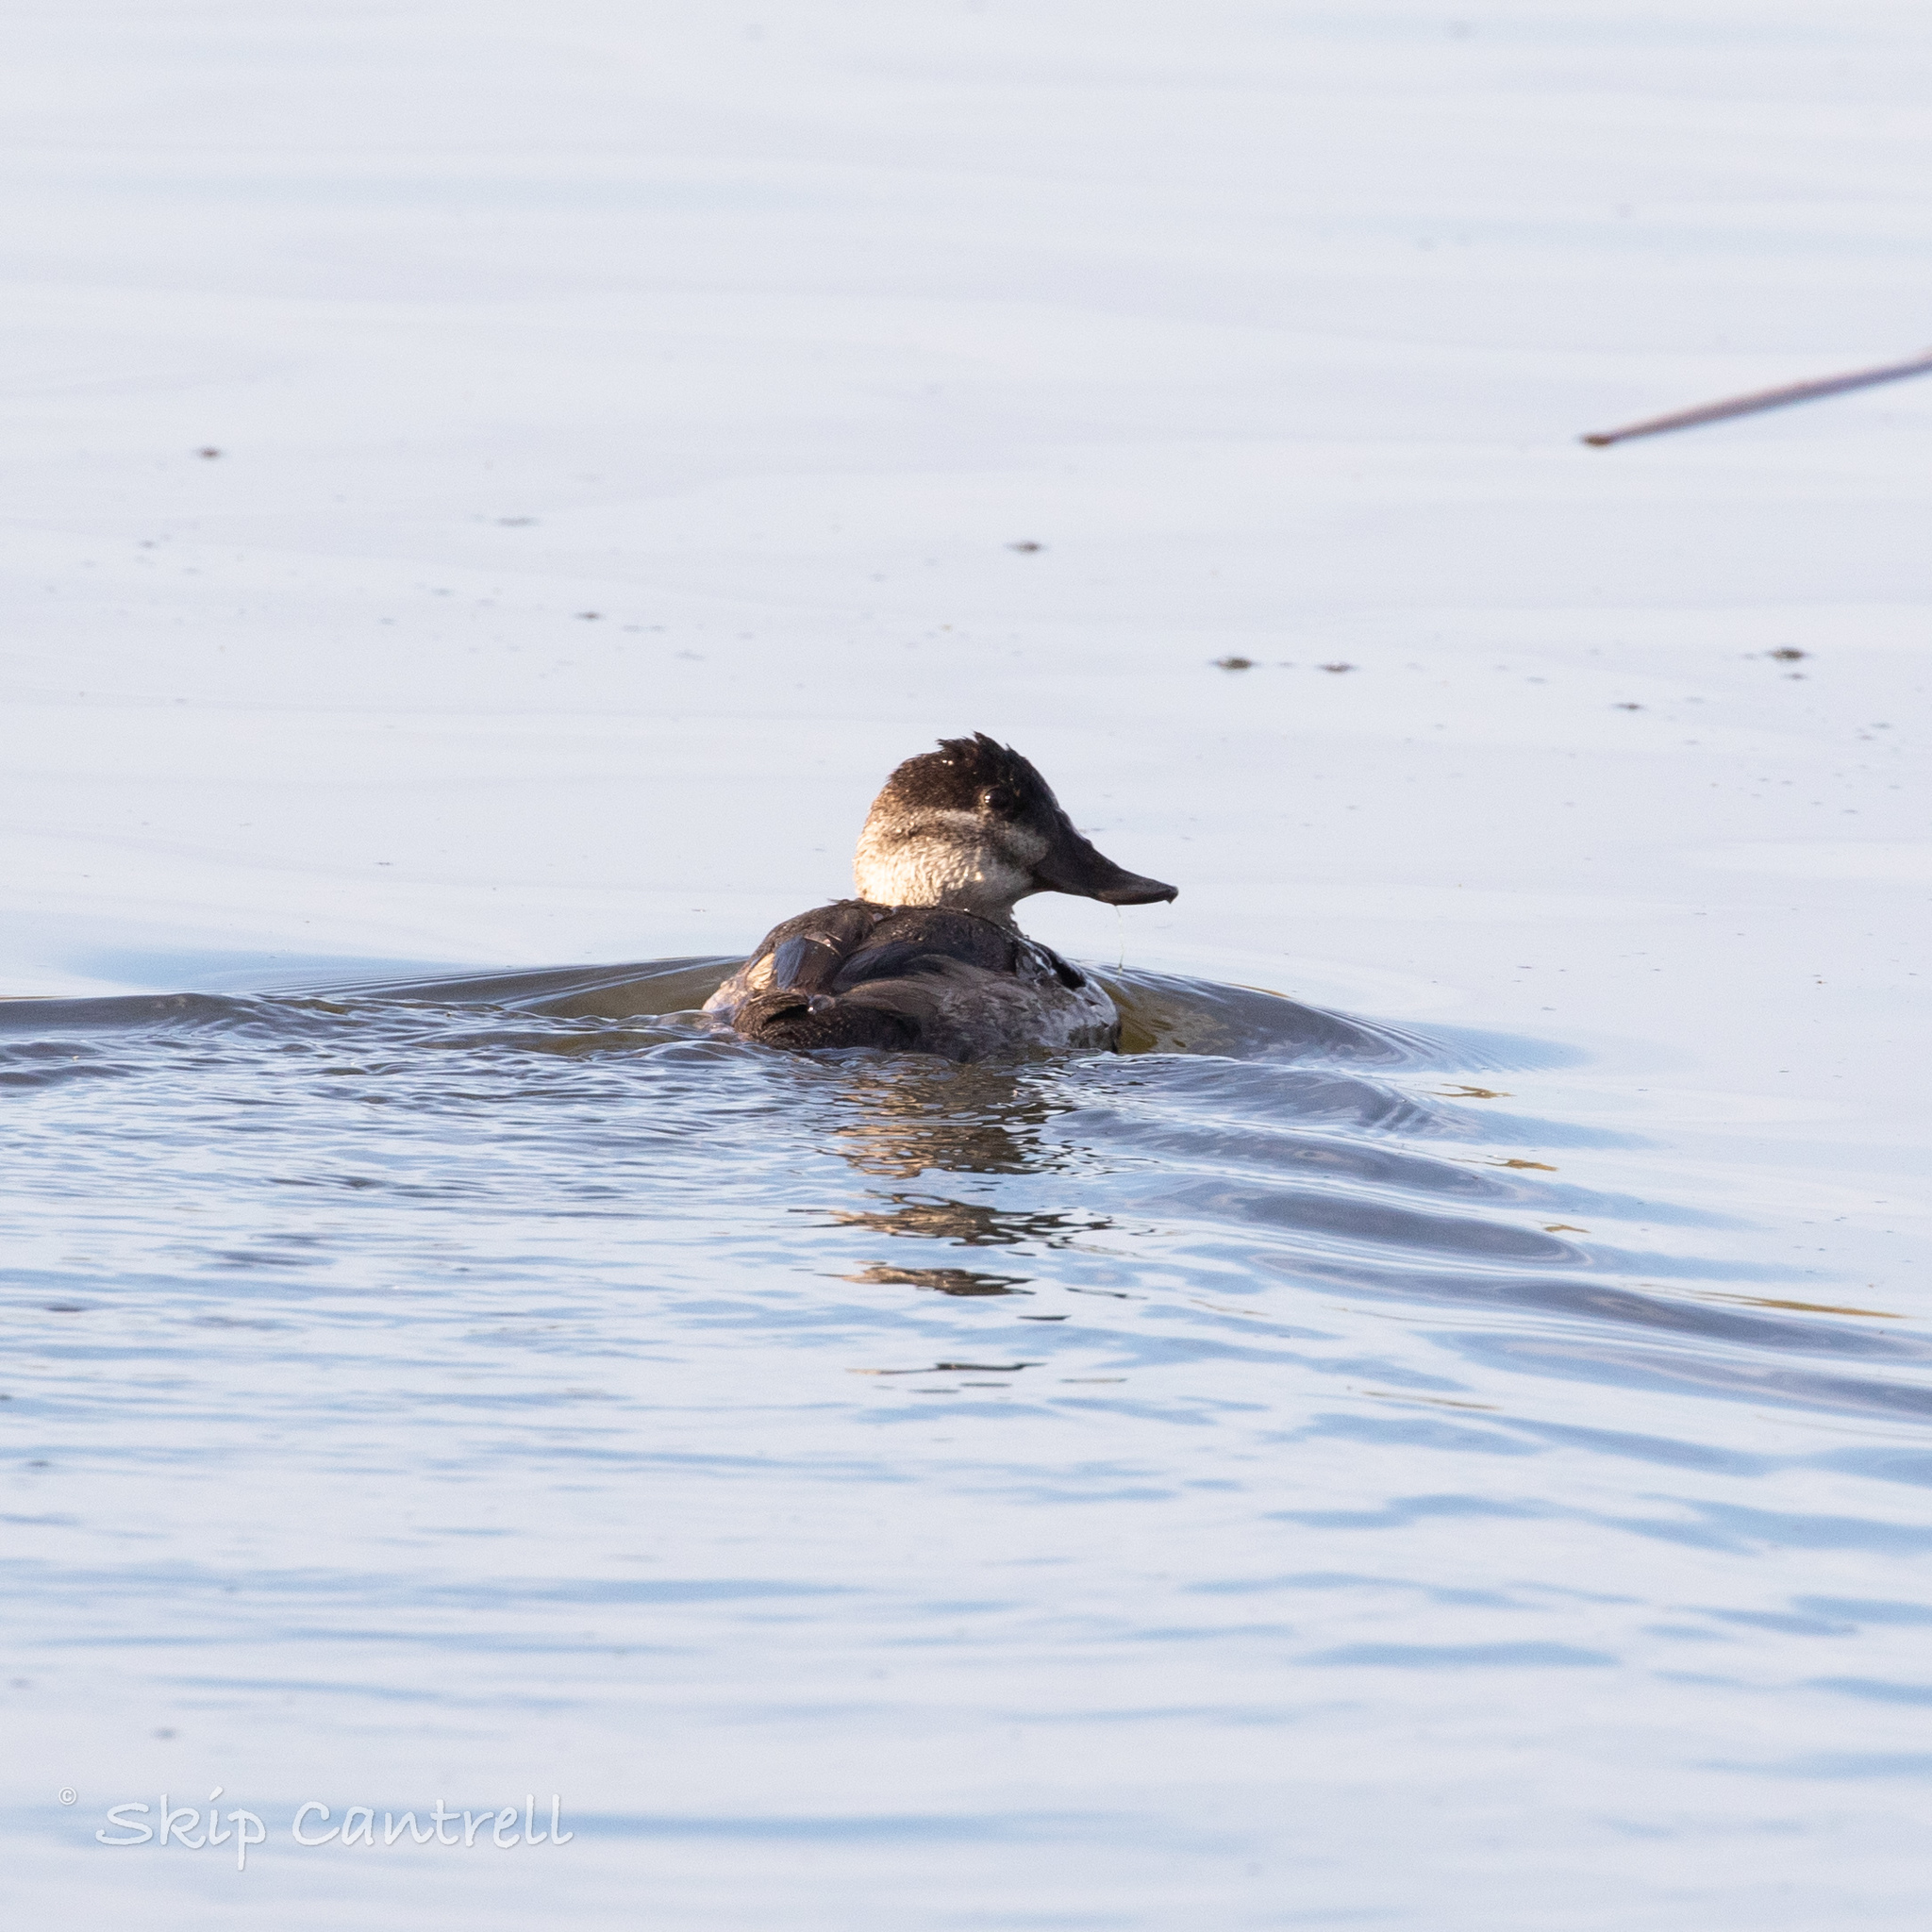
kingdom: Animalia
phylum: Chordata
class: Aves
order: Anseriformes
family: Anatidae
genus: Oxyura
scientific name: Oxyura jamaicensis
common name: Ruddy duck
